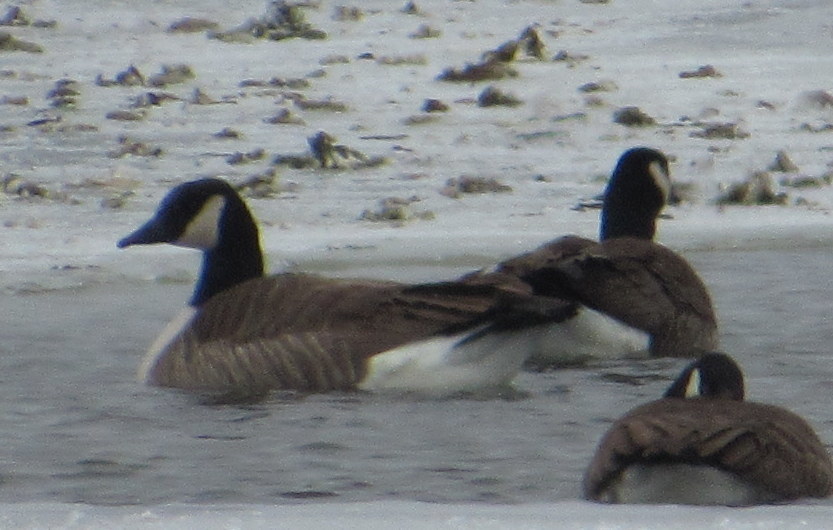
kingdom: Animalia
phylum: Chordata
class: Aves
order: Anseriformes
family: Anatidae
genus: Branta
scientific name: Branta canadensis
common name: Canada goose
